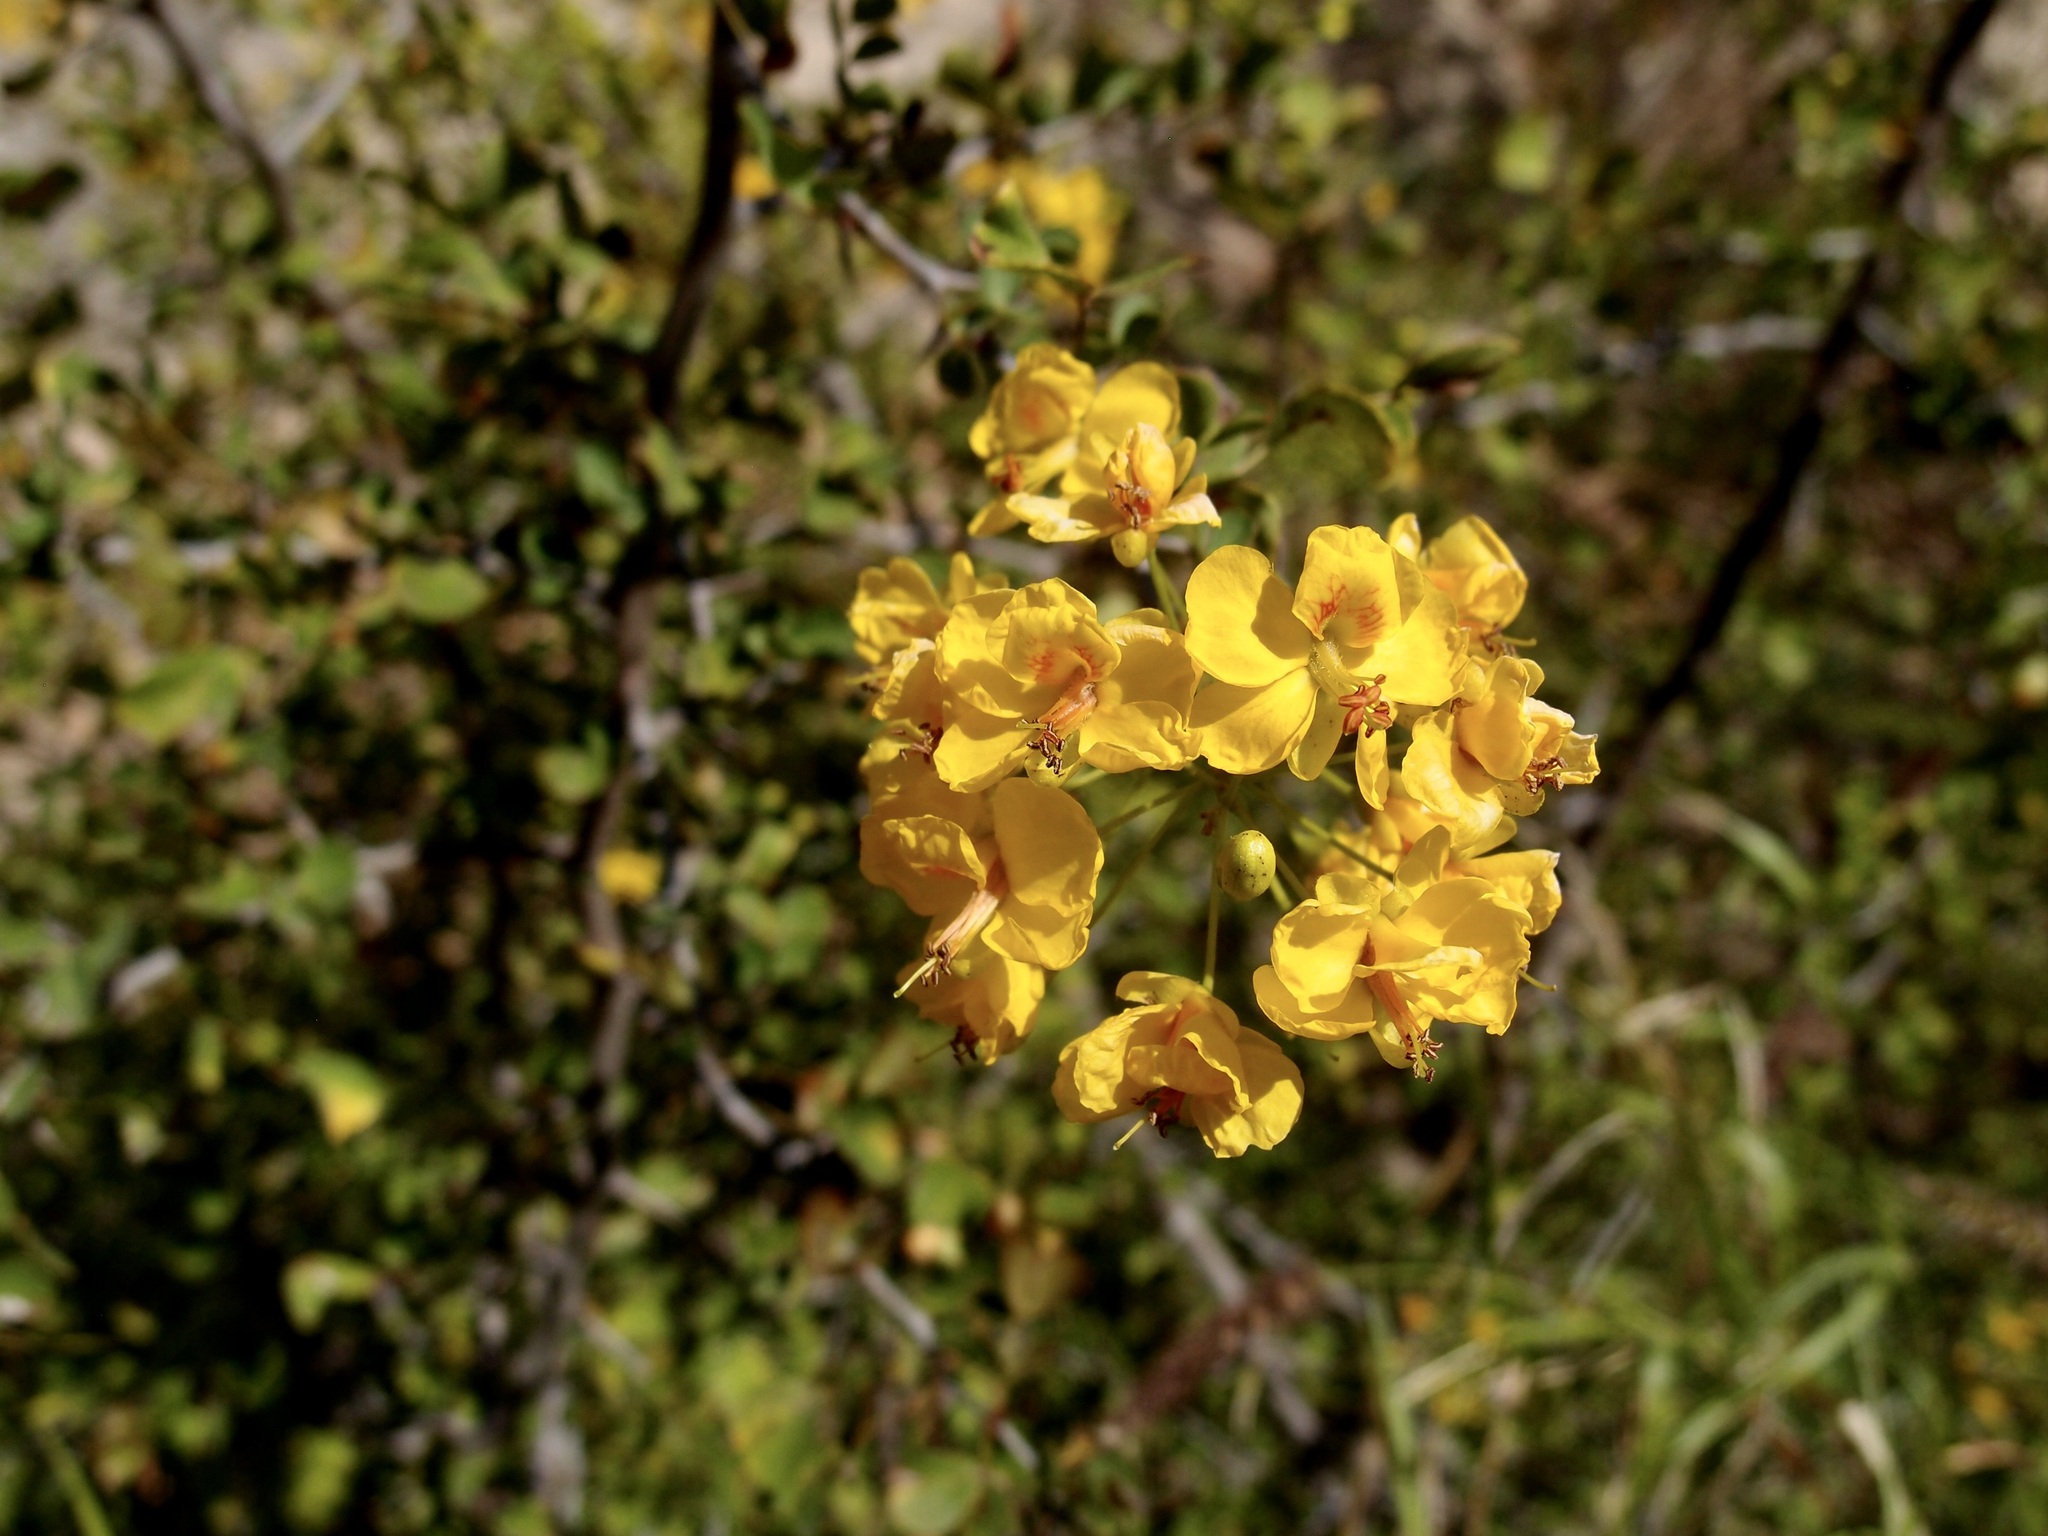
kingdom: Plantae
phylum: Tracheophyta
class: Magnoliopsida
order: Fabales
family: Fabaceae
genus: Haematoxylum
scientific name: Haematoxylum brasiletto
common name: Peachwood
